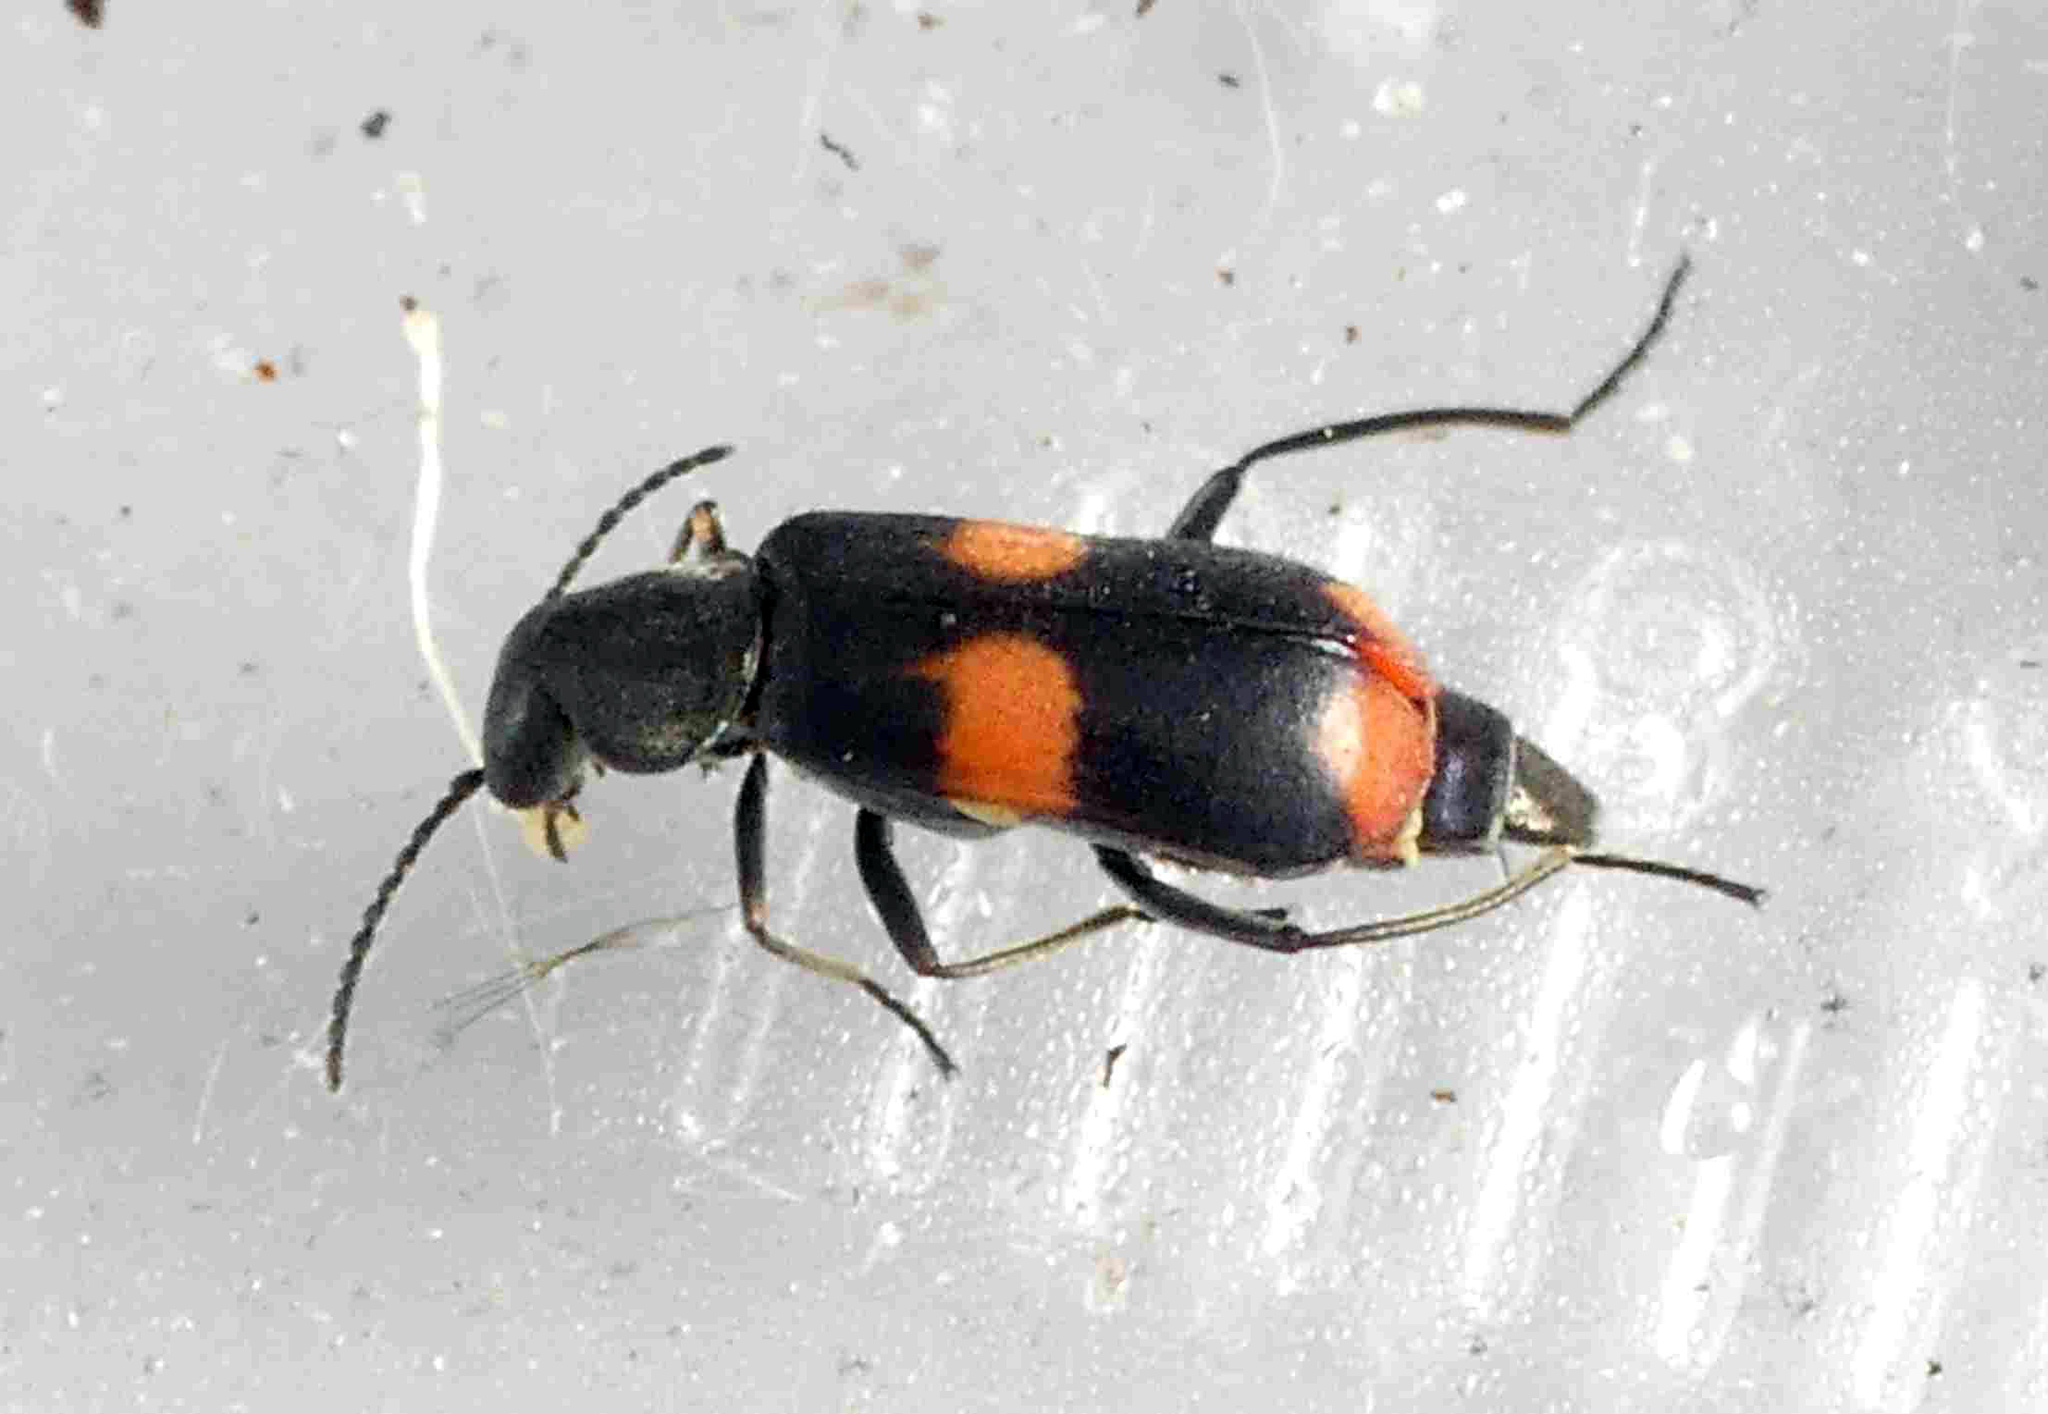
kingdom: Animalia
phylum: Arthropoda
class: Insecta
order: Coleoptera
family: Melyridae
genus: Anthocomus
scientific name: Anthocomus fasciatus
